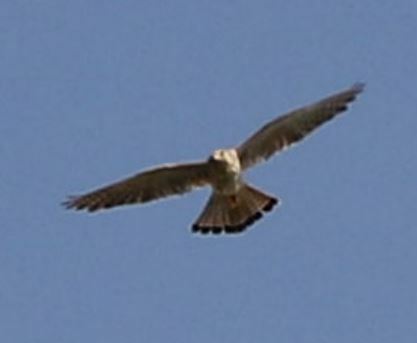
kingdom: Animalia
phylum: Chordata
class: Aves
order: Falconiformes
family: Falconidae
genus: Falco
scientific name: Falco tinnunculus
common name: Common kestrel
